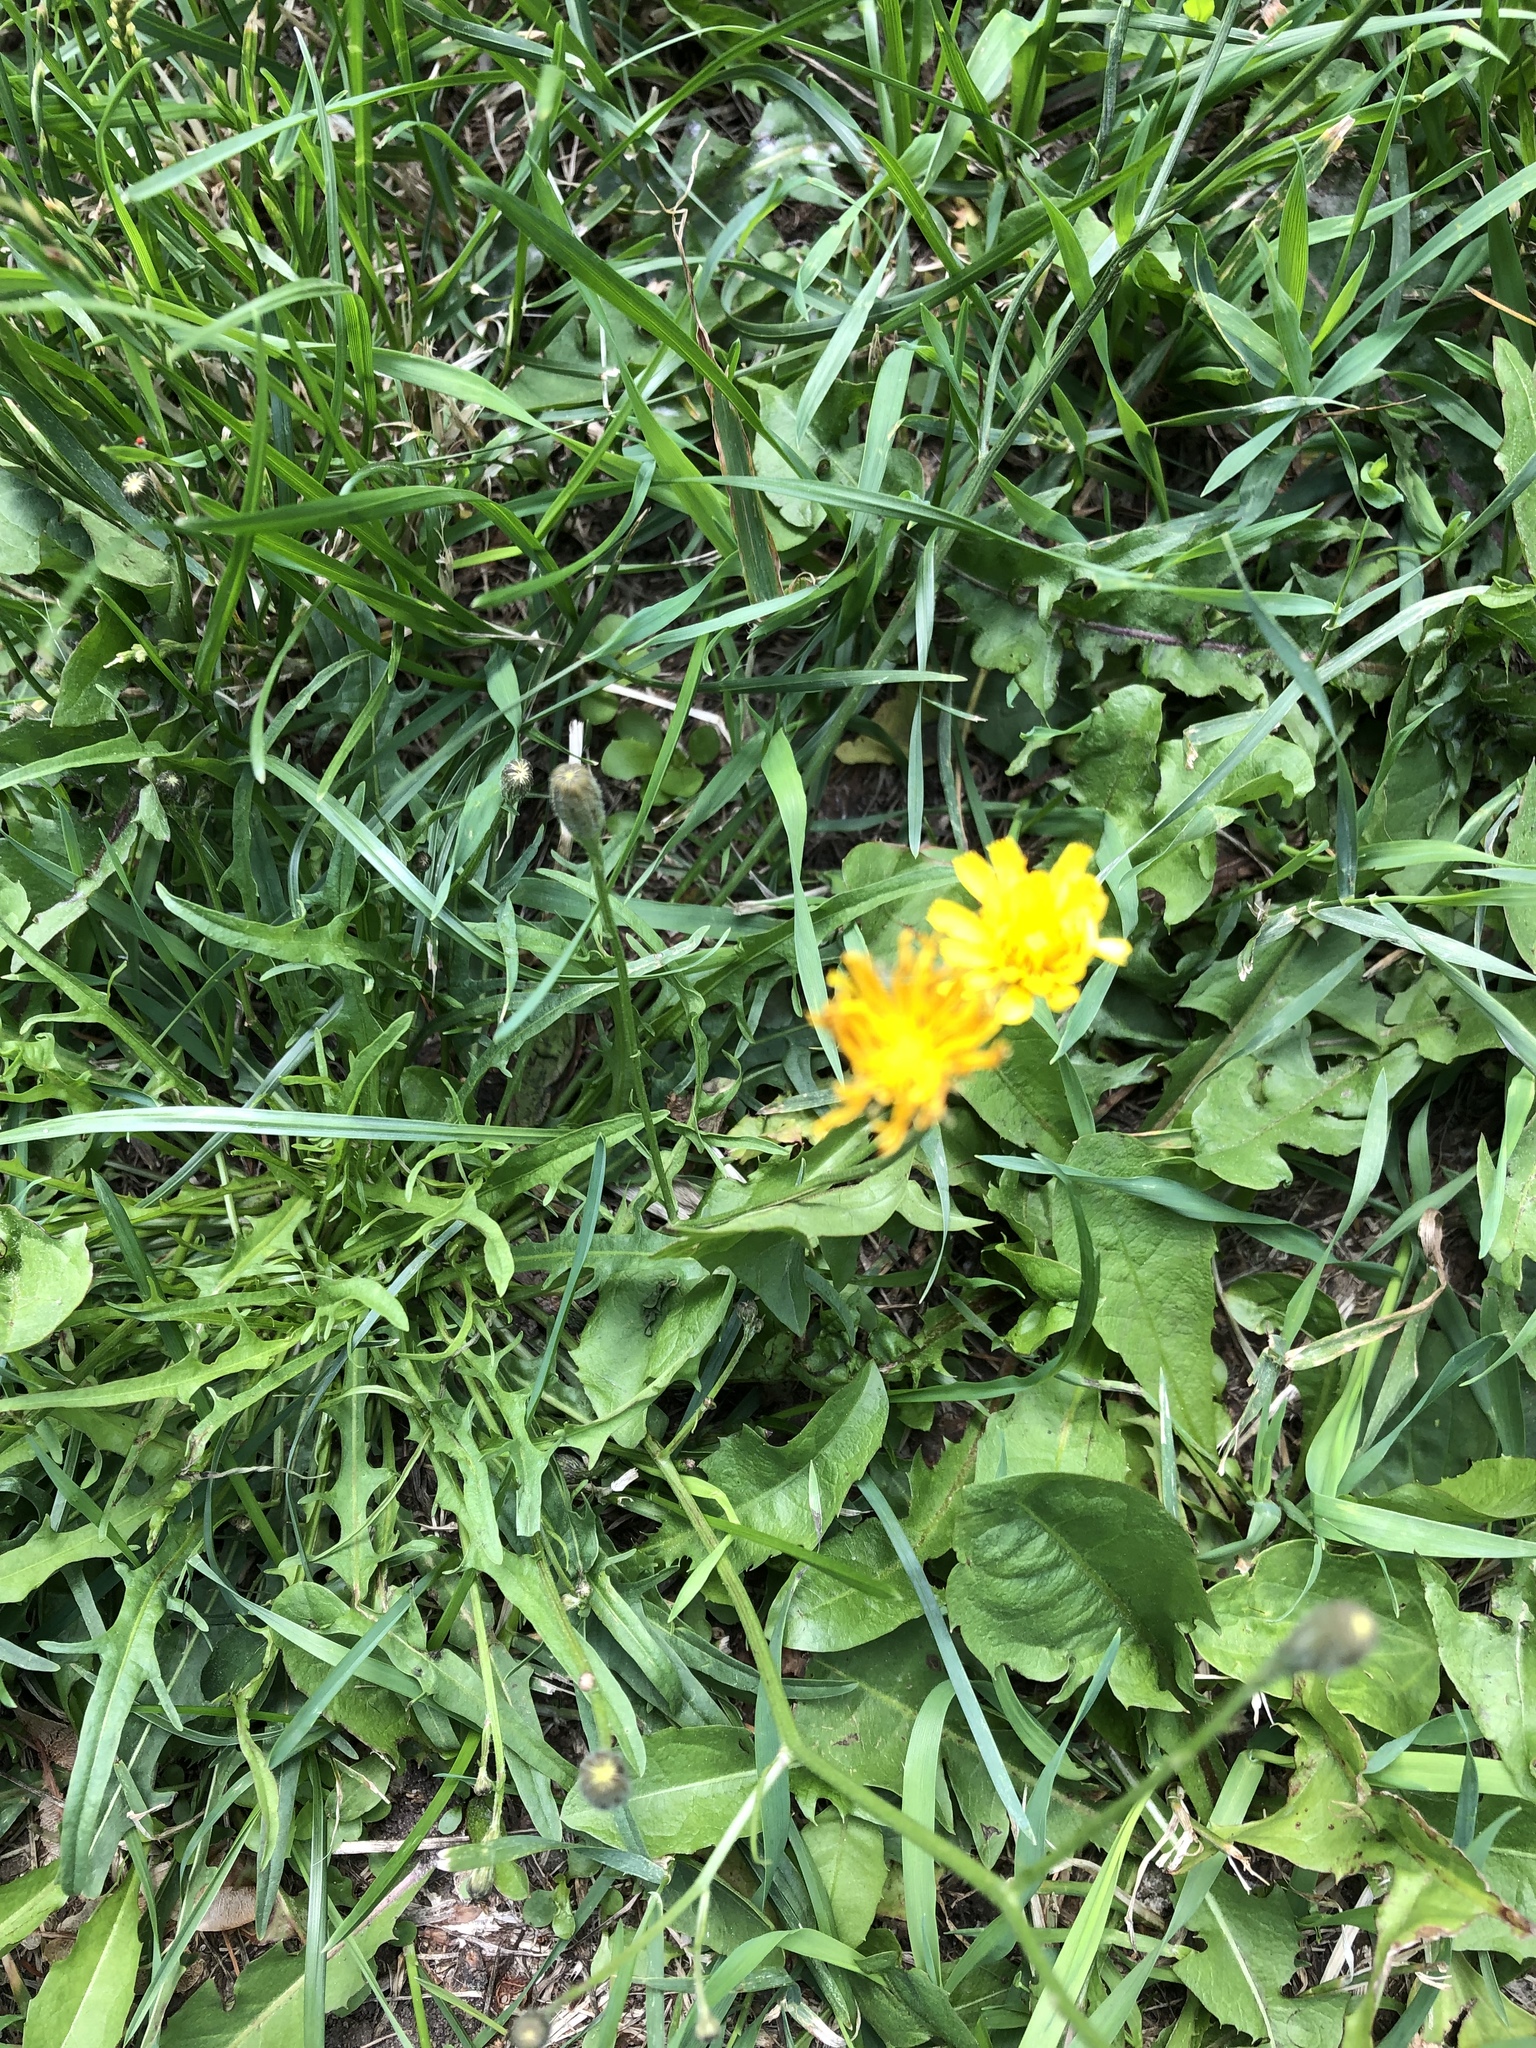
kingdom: Plantae
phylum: Tracheophyta
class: Magnoliopsida
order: Asterales
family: Asteraceae
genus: Scorzoneroides
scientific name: Scorzoneroides autumnalis
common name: Autumn hawkbit
